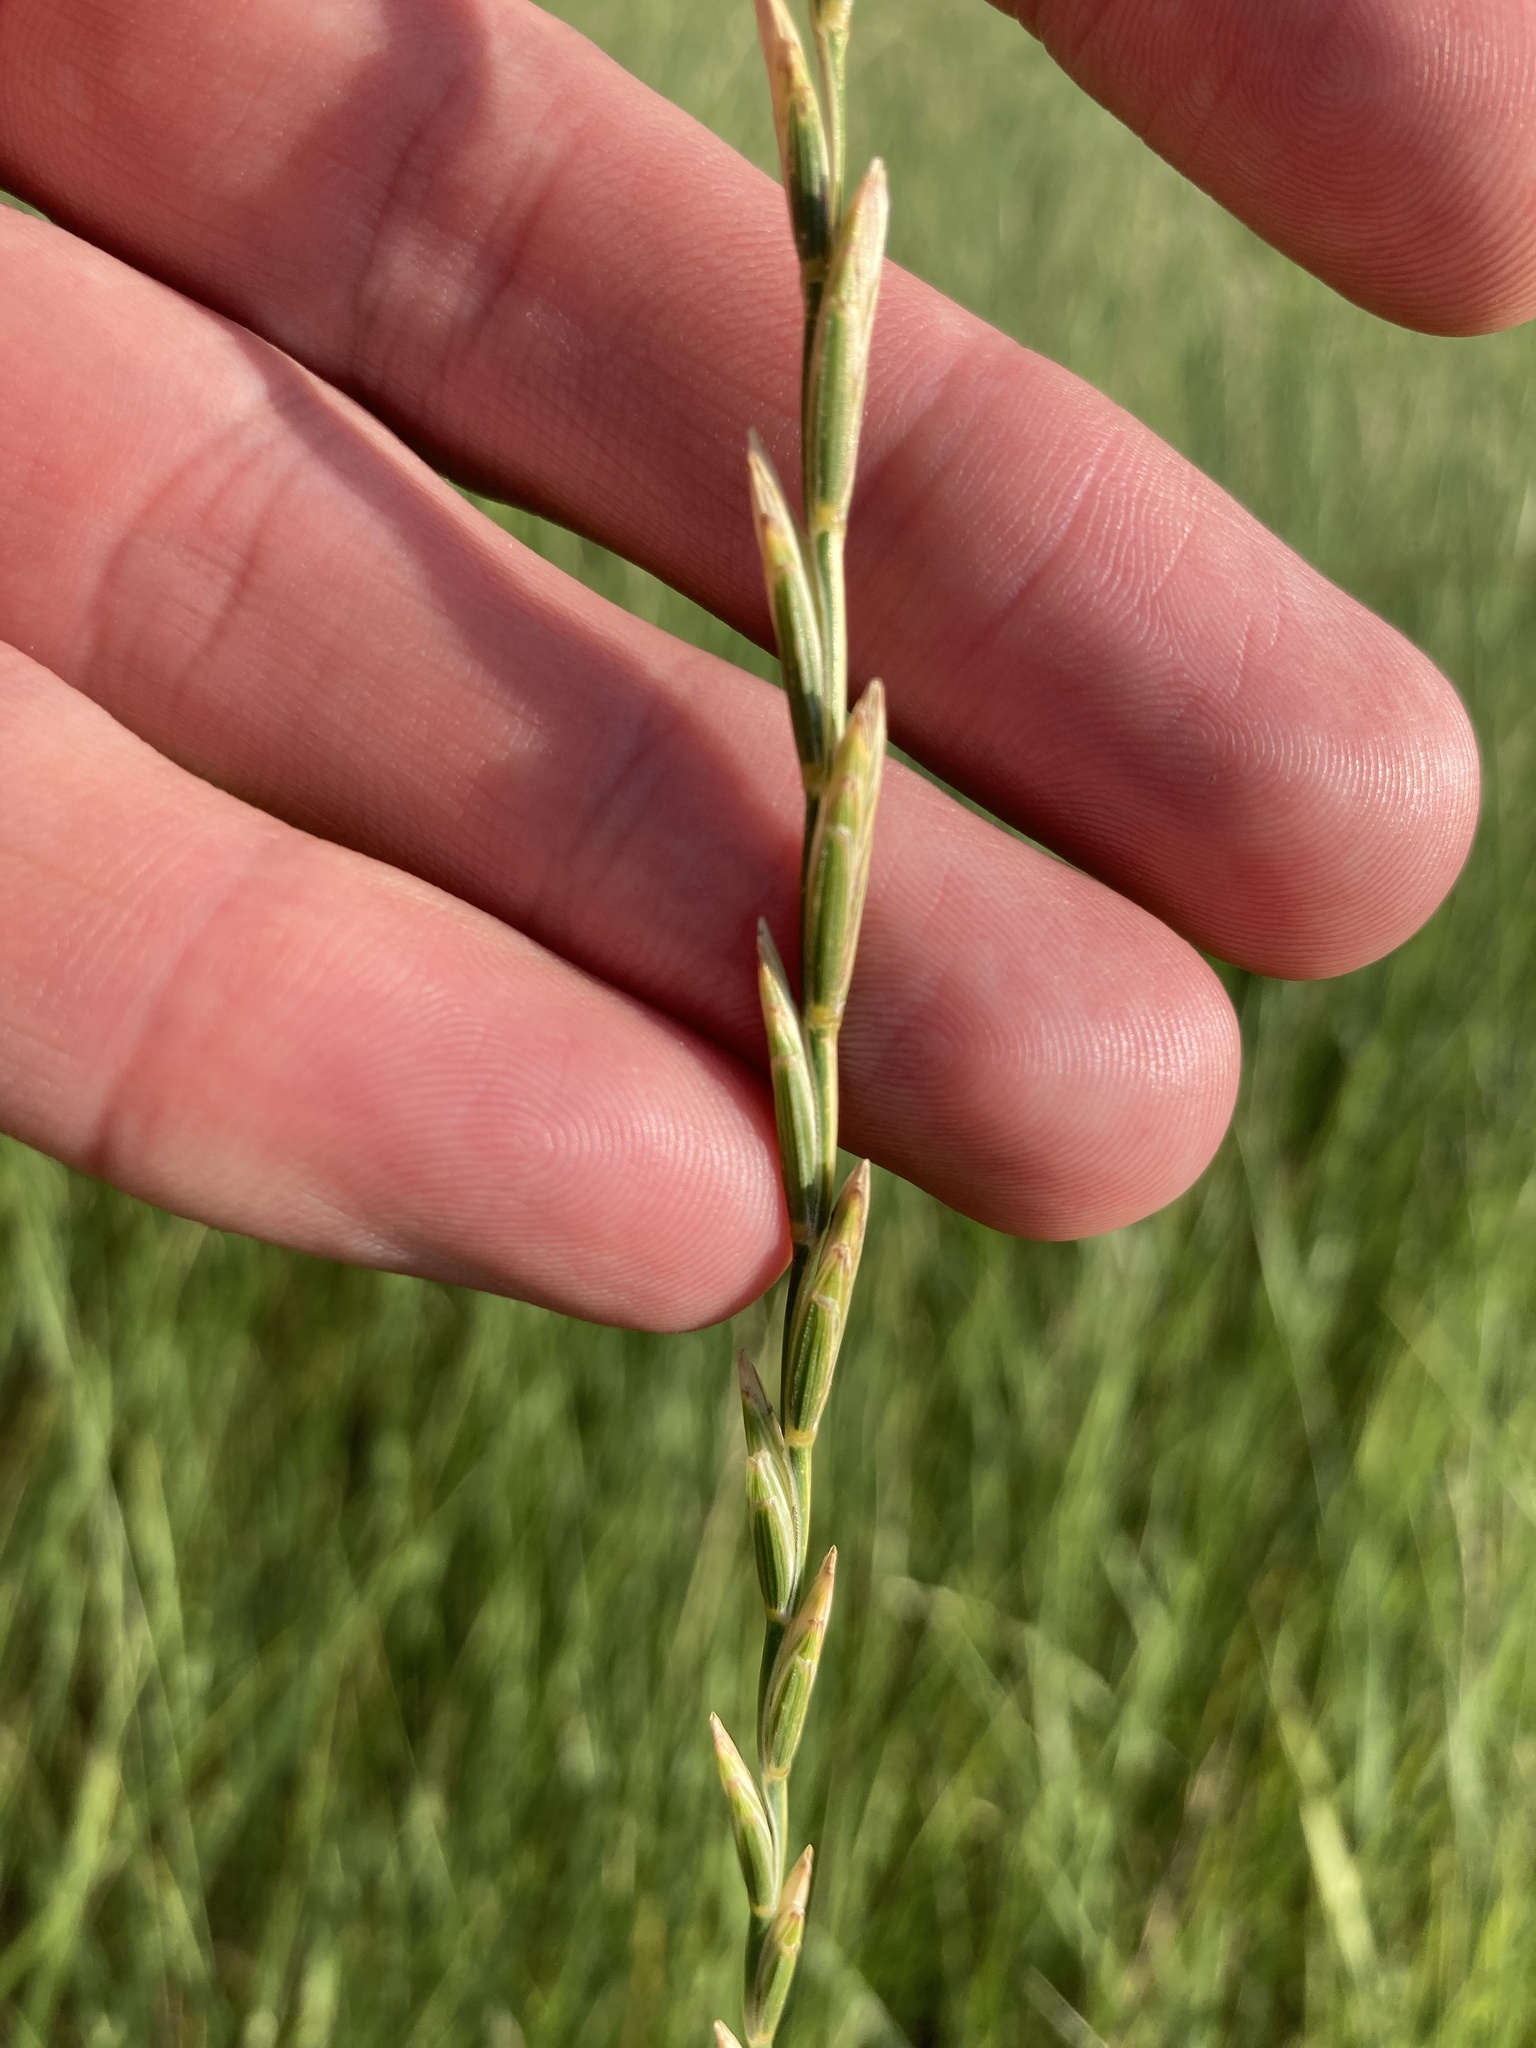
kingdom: Plantae
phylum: Tracheophyta
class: Liliopsida
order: Poales
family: Poaceae
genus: Thinopyrum
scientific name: Thinopyrum intermedium
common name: Intermediate wheatgrass
